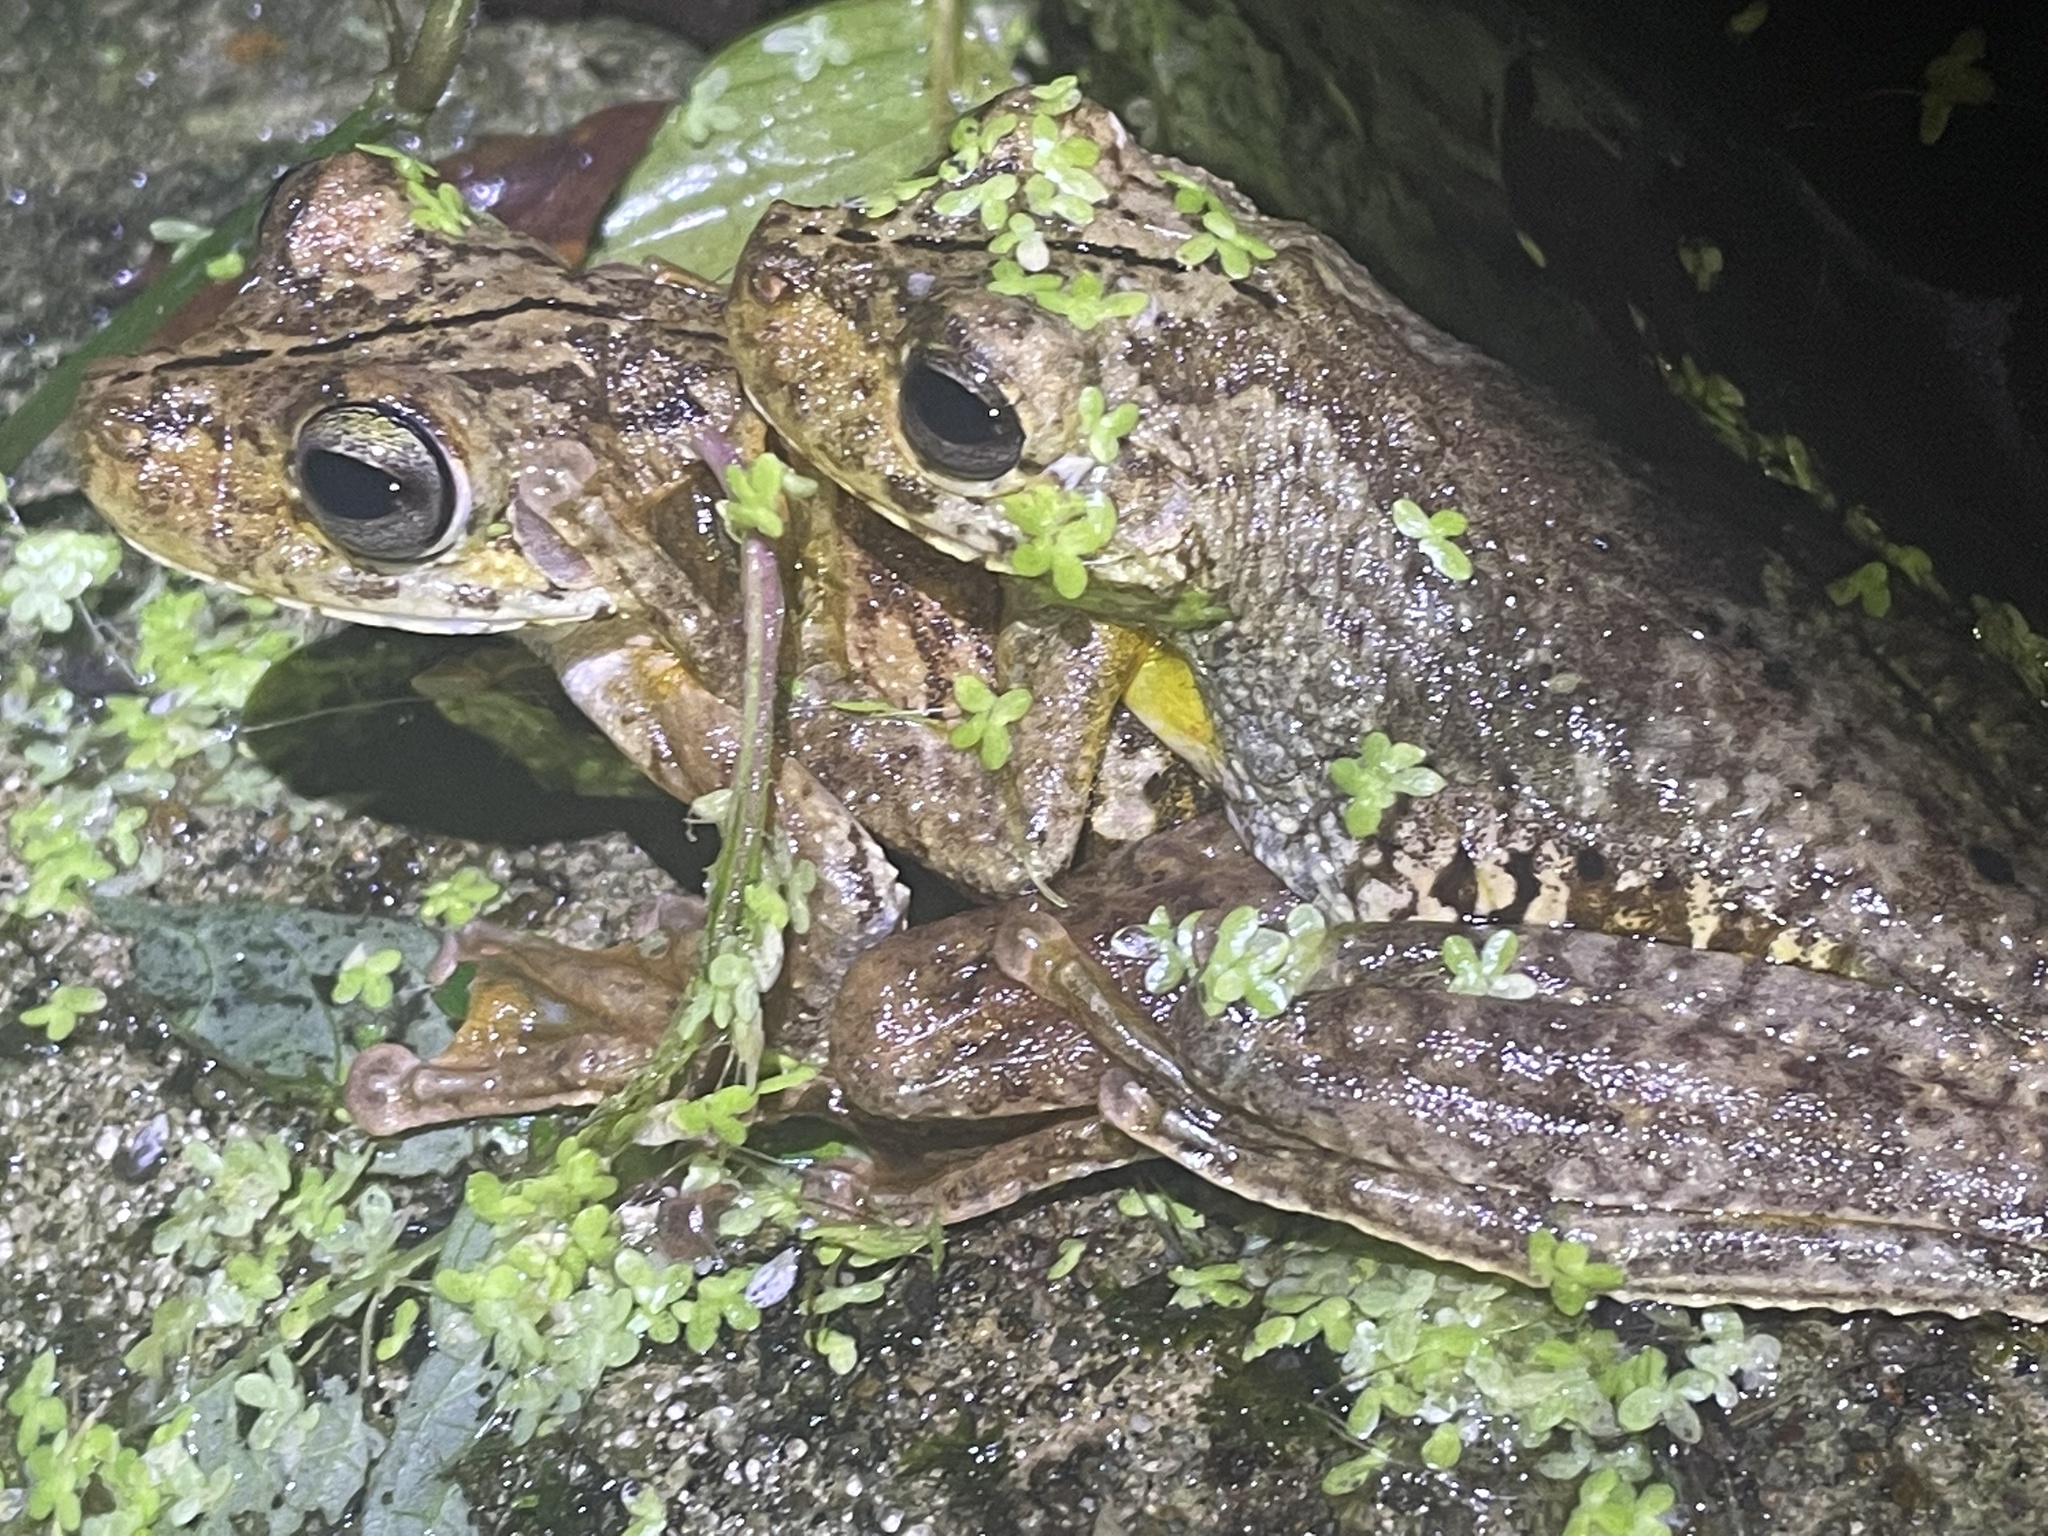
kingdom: Animalia
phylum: Chordata
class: Amphibia
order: Anura
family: Hylidae
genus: Boana
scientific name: Boana rosenbergi
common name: Rosenberg´s gladiator treefrog
